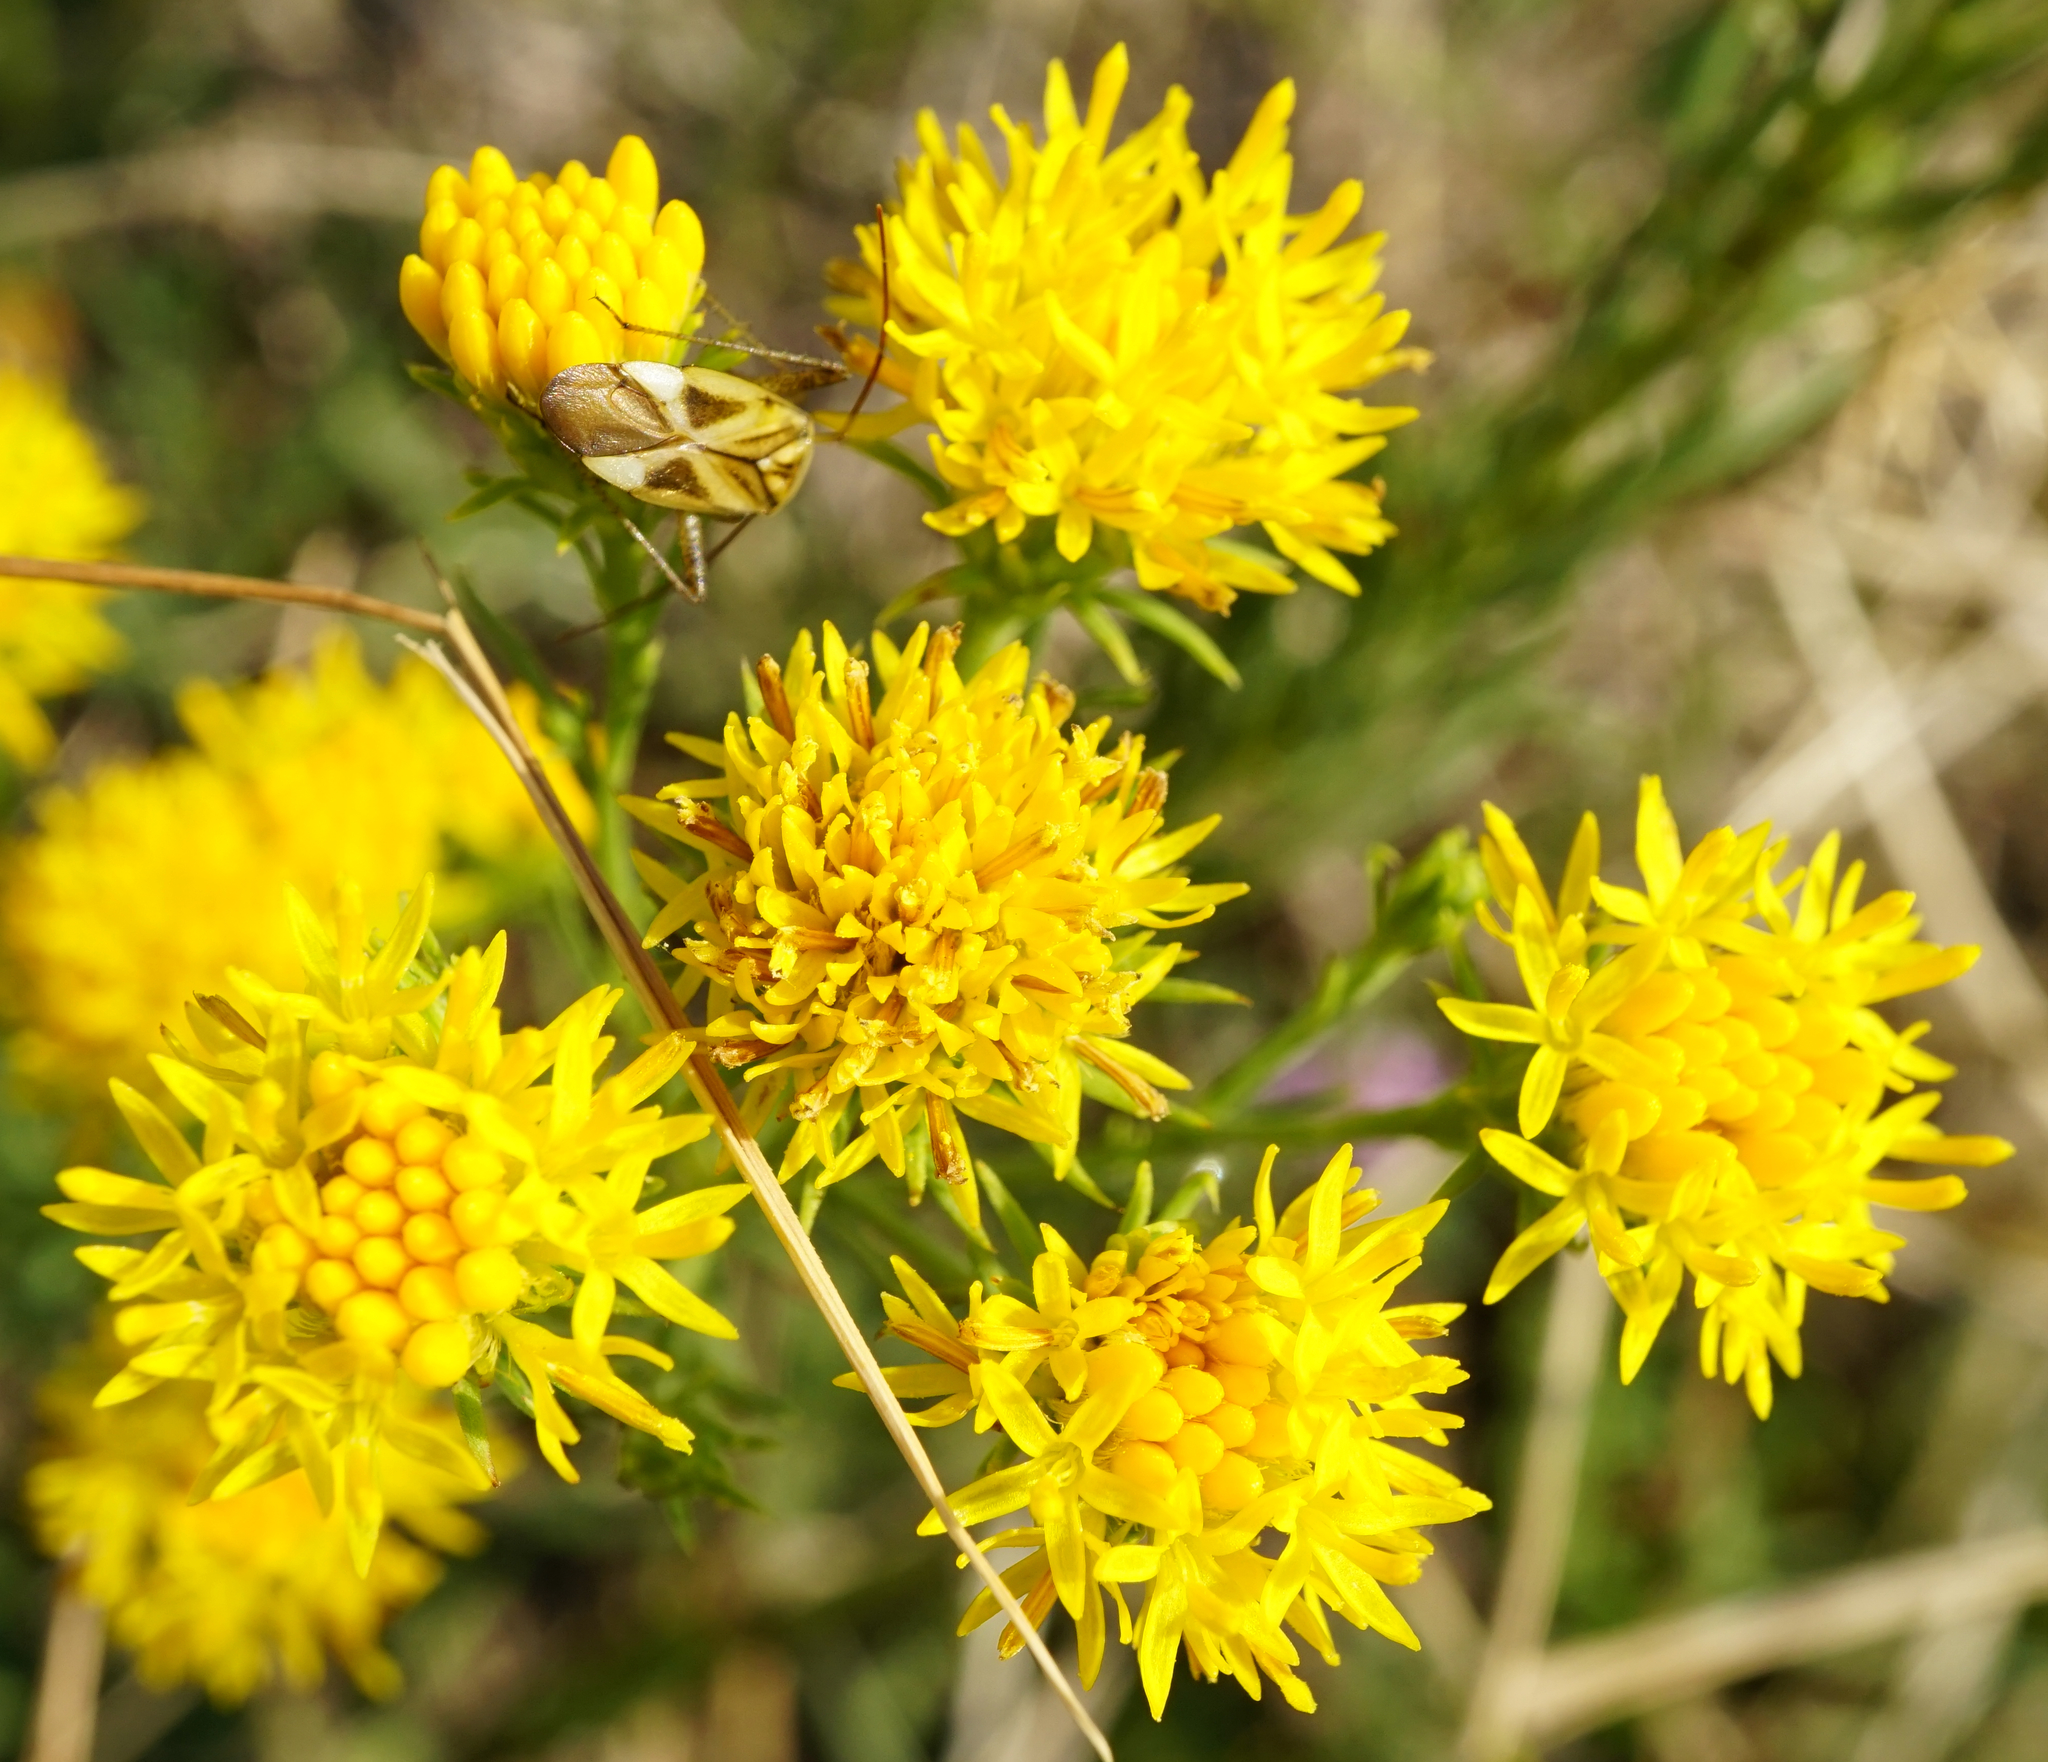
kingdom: Plantae
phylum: Tracheophyta
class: Magnoliopsida
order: Asterales
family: Asteraceae
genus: Galatella
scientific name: Galatella linosyris
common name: Goldilocks aster
